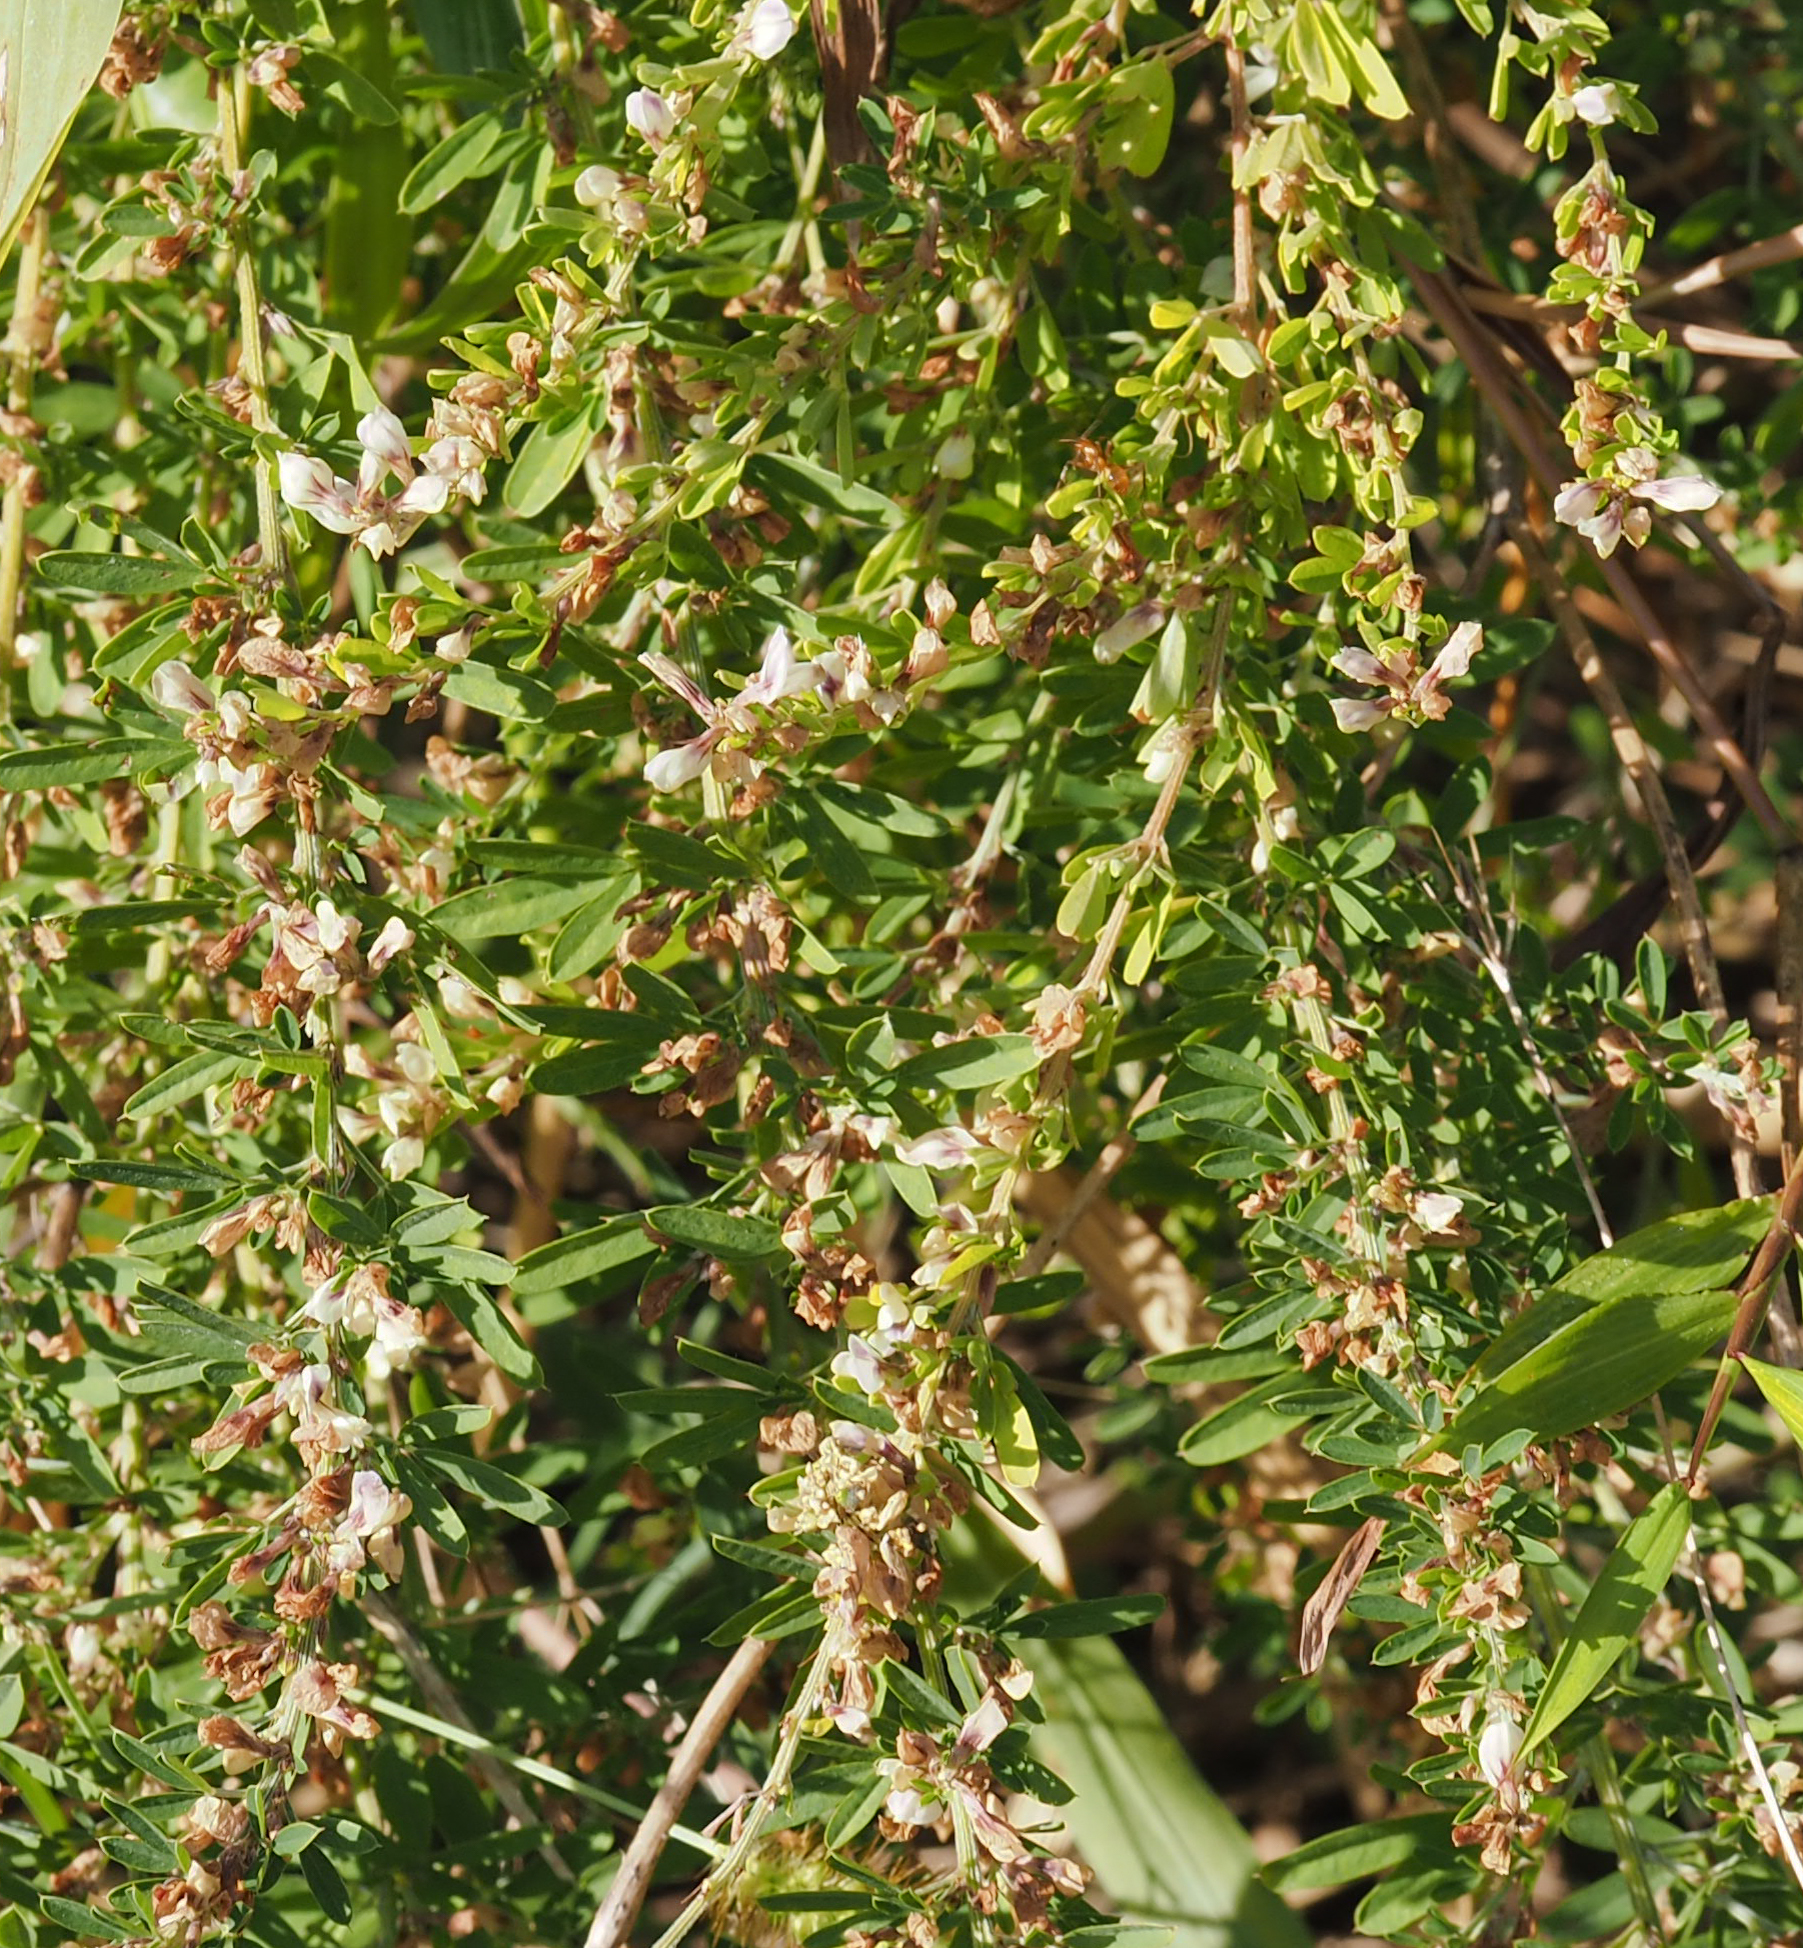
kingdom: Plantae
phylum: Tracheophyta
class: Magnoliopsida
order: Fabales
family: Fabaceae
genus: Lespedeza
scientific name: Lespedeza cuneata
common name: Chinese bush-clover
